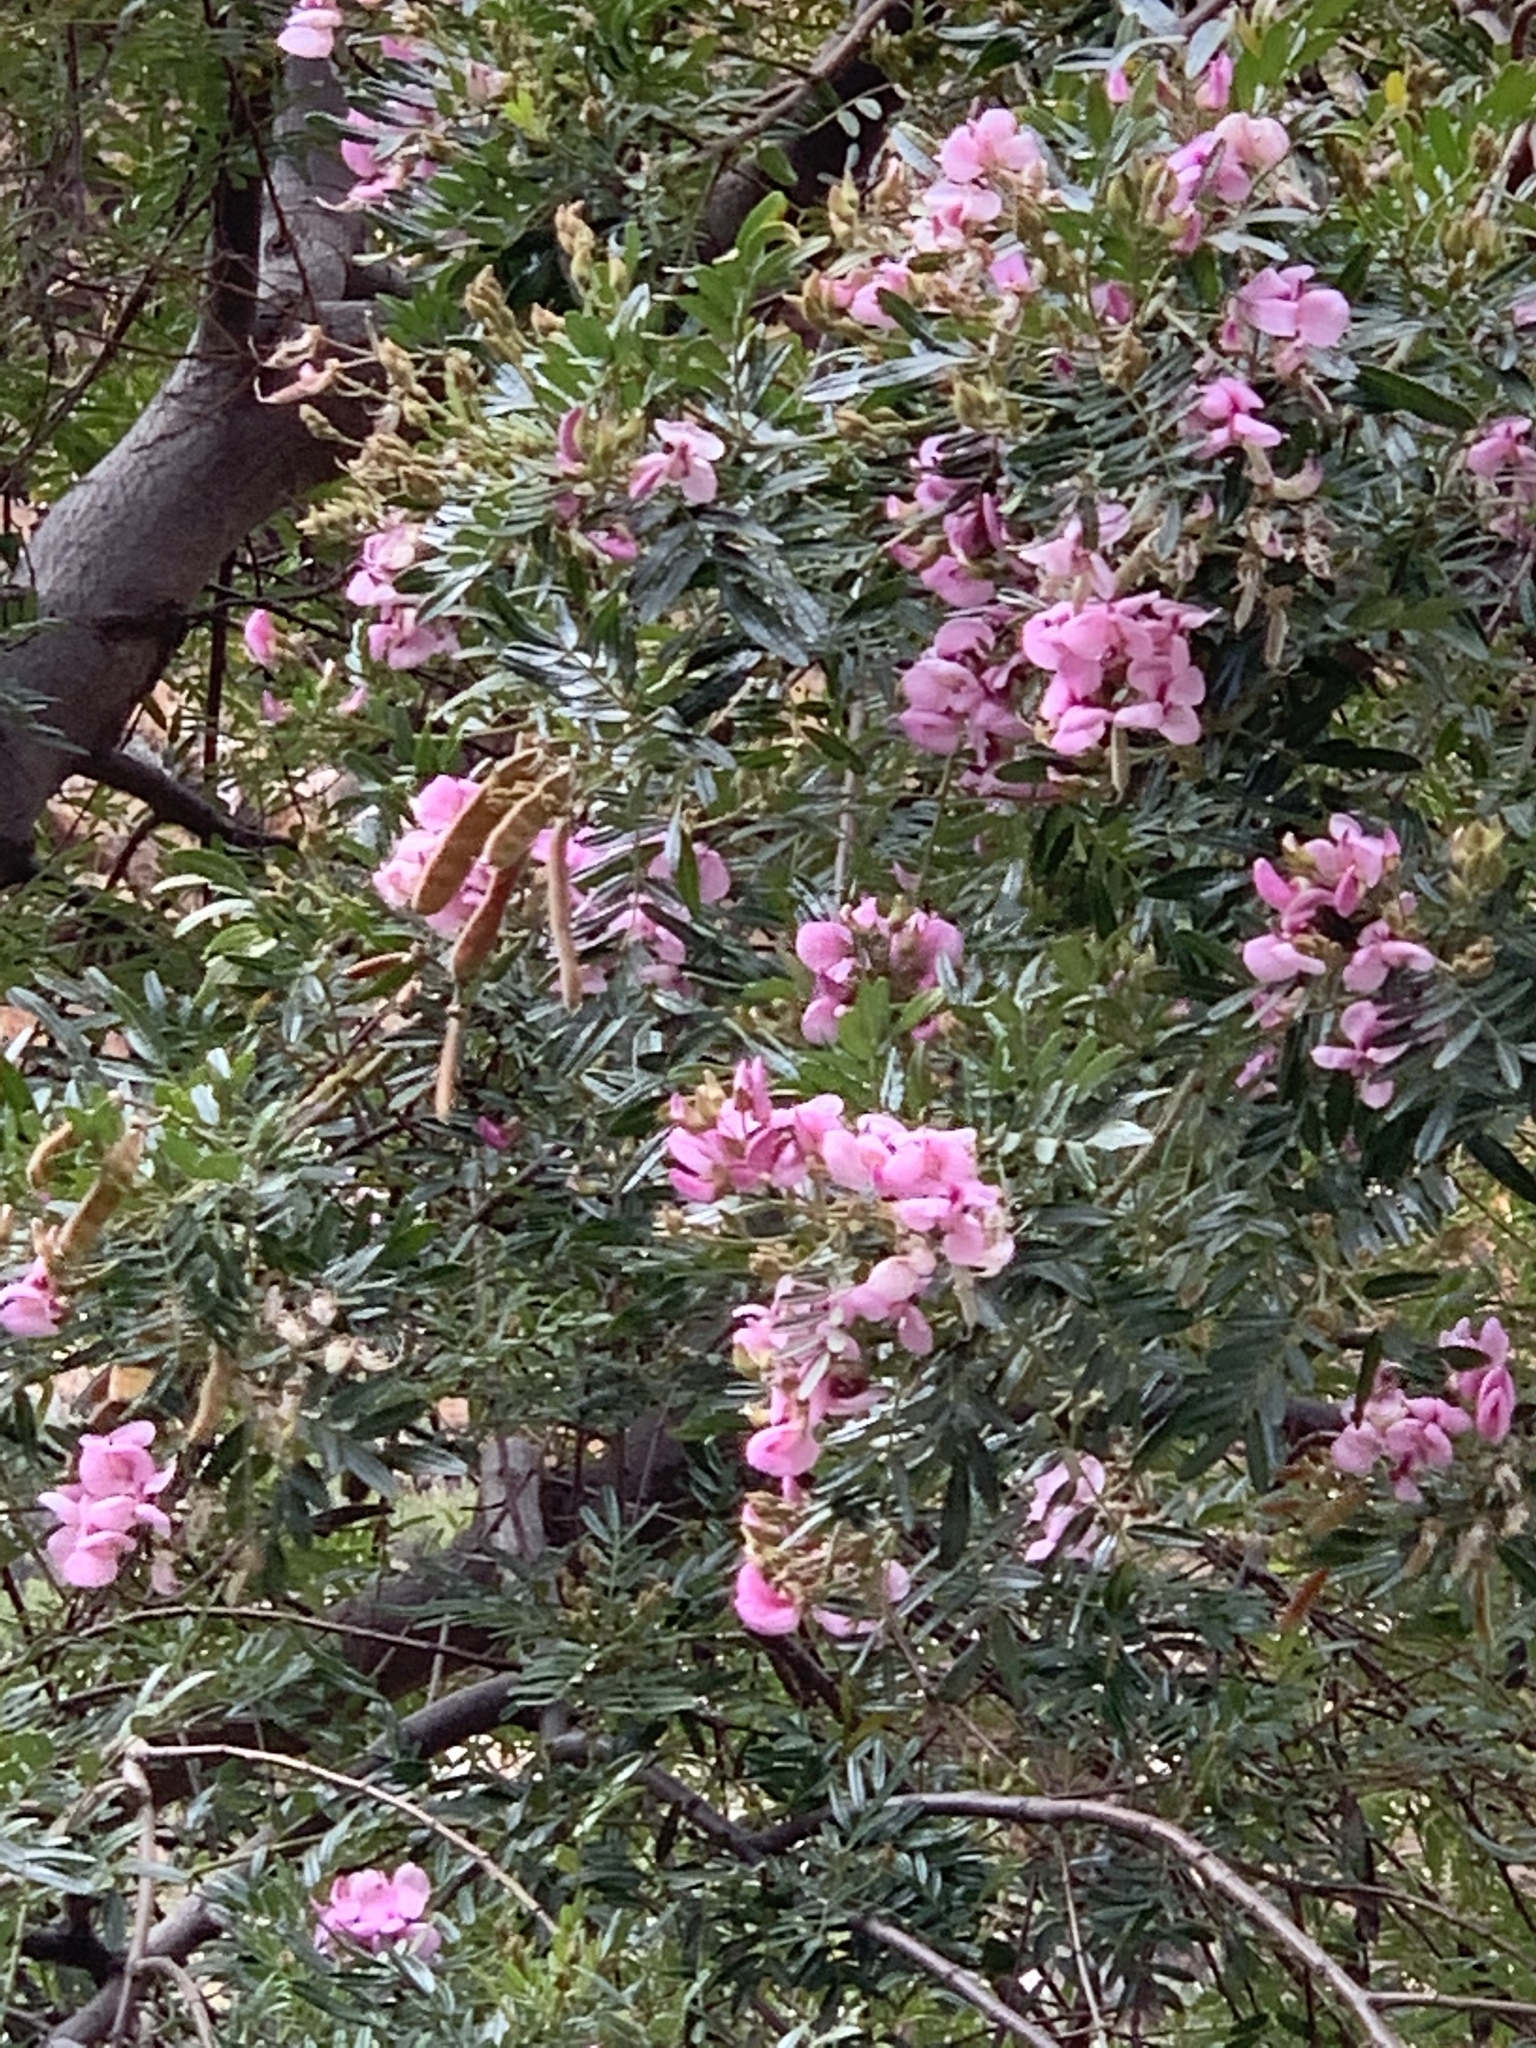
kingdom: Plantae
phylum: Tracheophyta
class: Magnoliopsida
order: Fabales
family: Fabaceae
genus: Virgilia
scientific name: Virgilia oroboides
